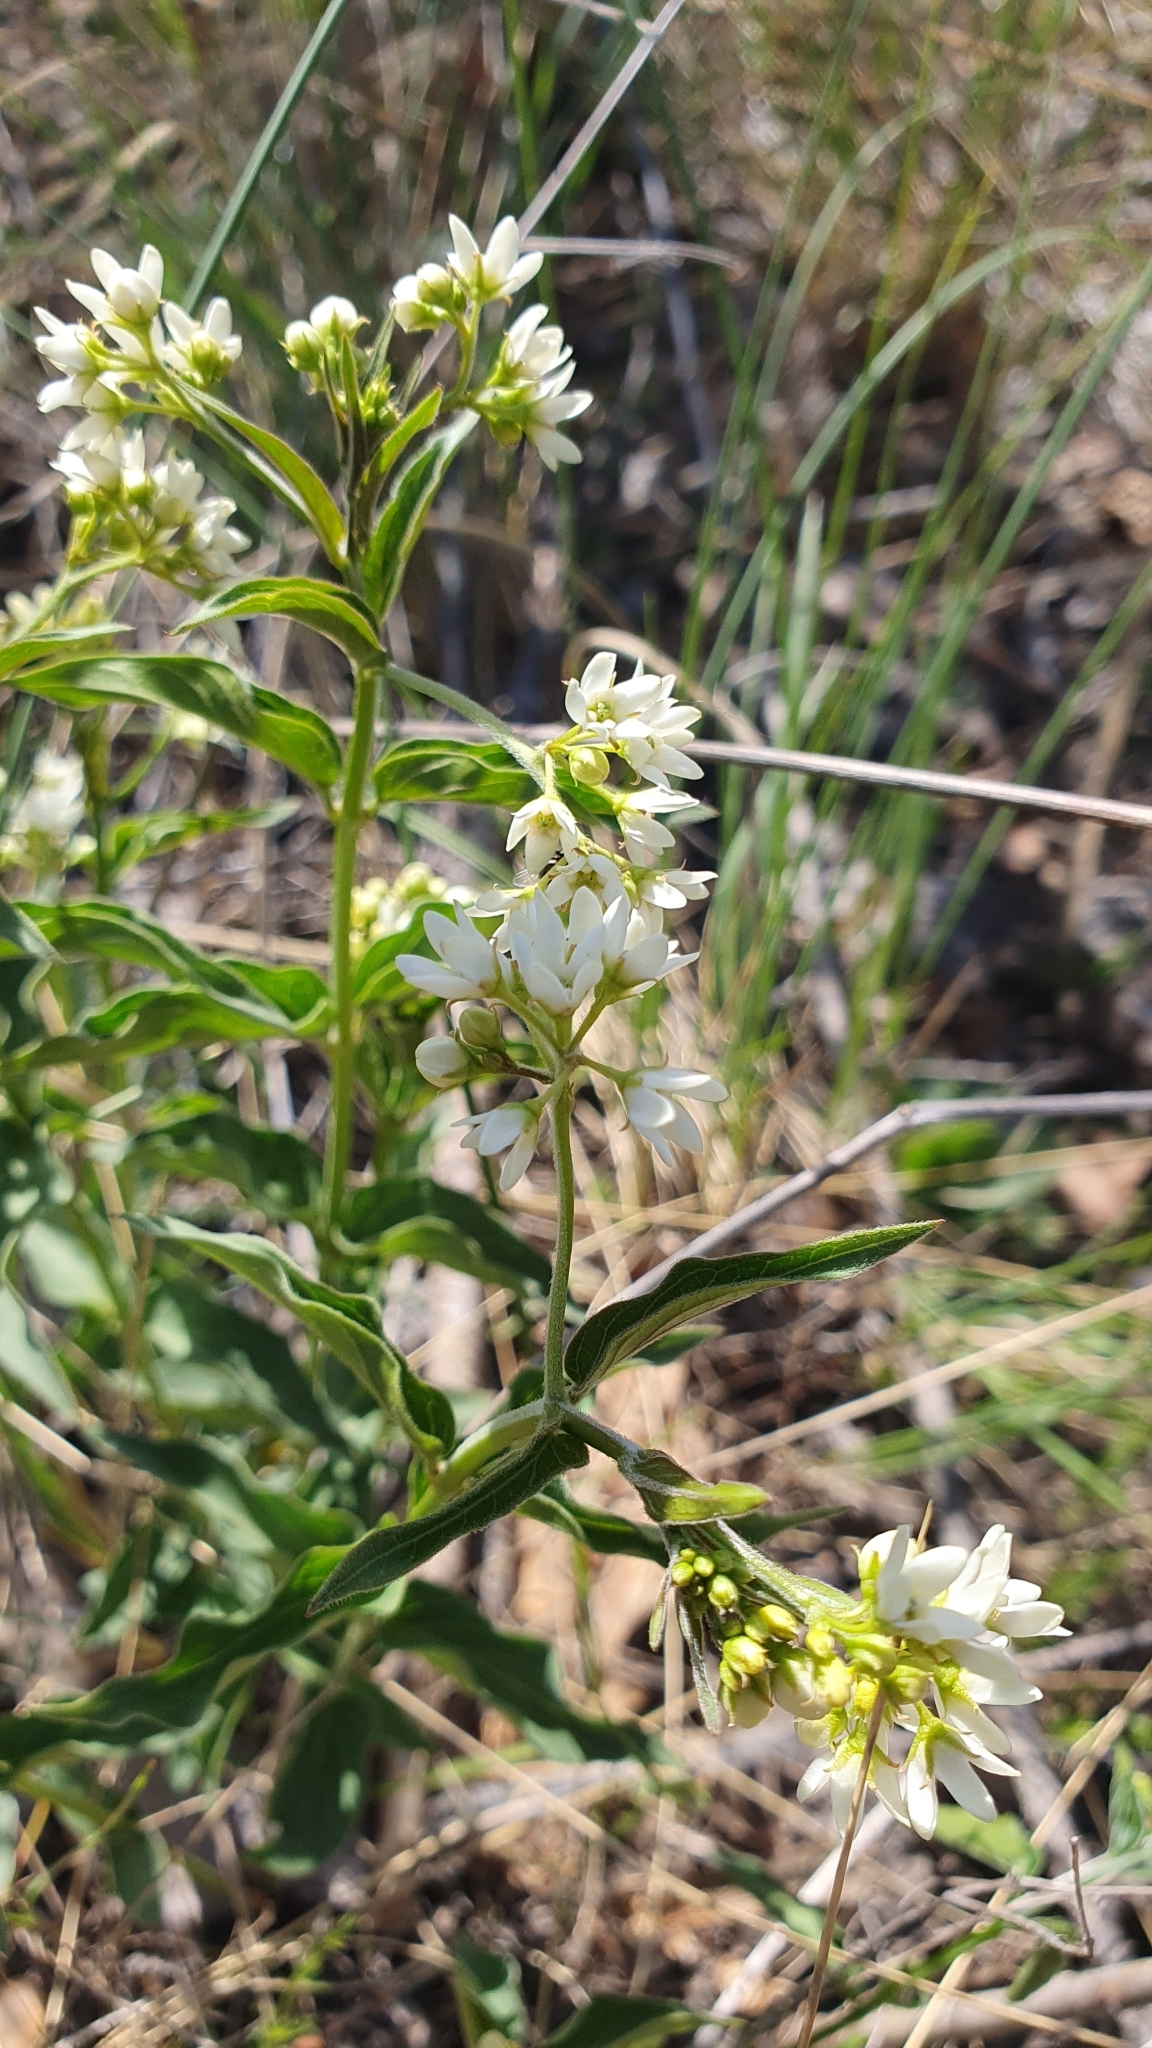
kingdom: Plantae
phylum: Tracheophyta
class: Magnoliopsida
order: Gentianales
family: Apocynaceae
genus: Vincetoxicum
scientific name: Vincetoxicum hirundinaria
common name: White swallowwort
